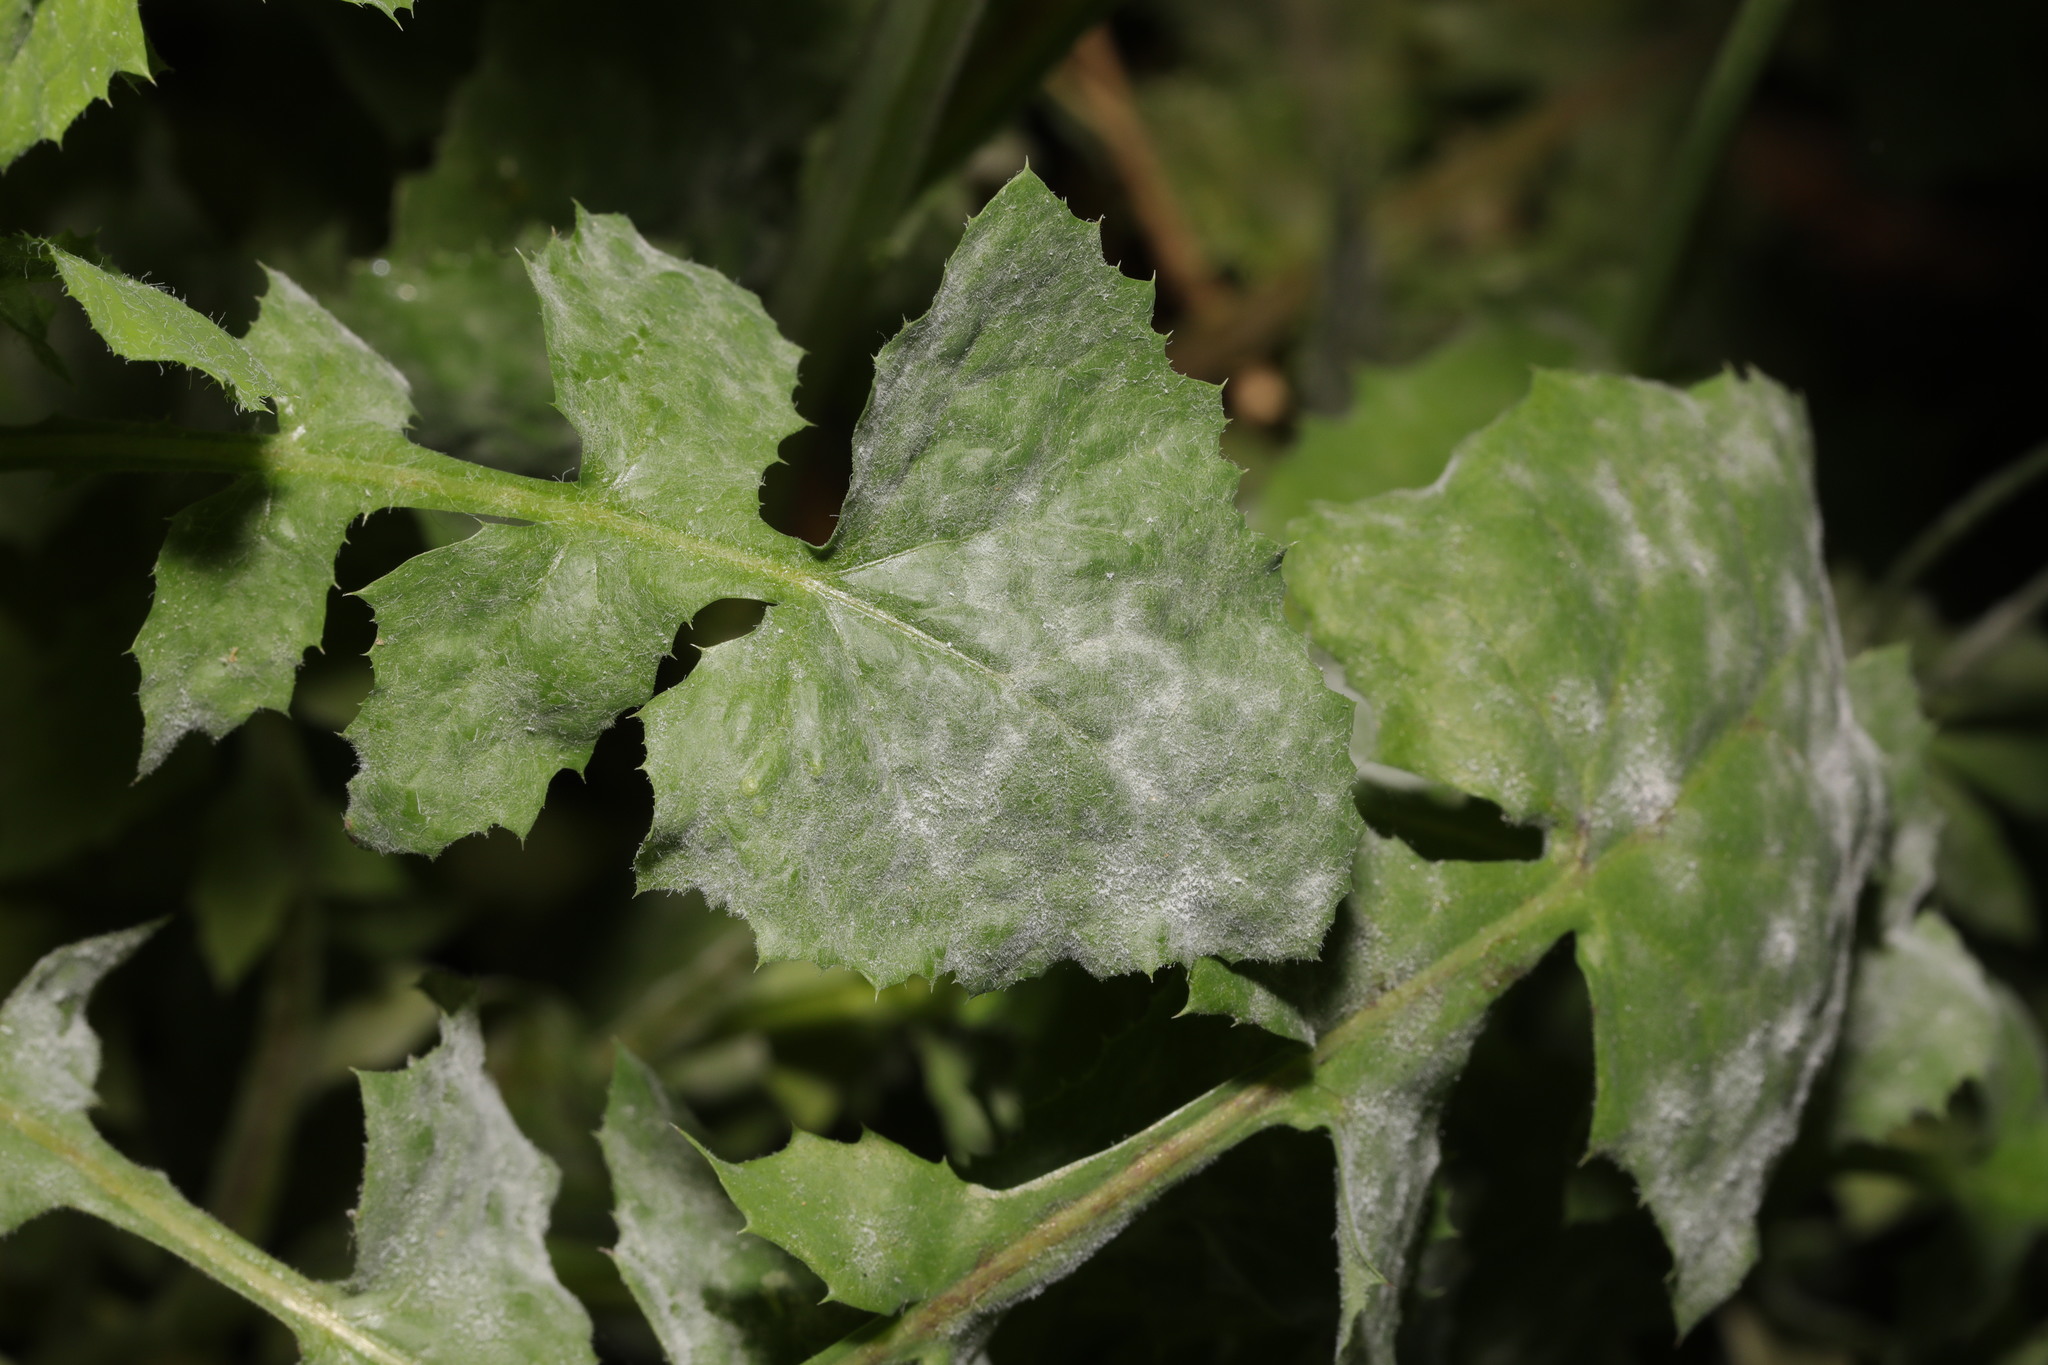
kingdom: Fungi
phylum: Ascomycota
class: Leotiomycetes
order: Helotiales
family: Erysiphaceae
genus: Golovinomyces
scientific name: Golovinomyces sonchicola
